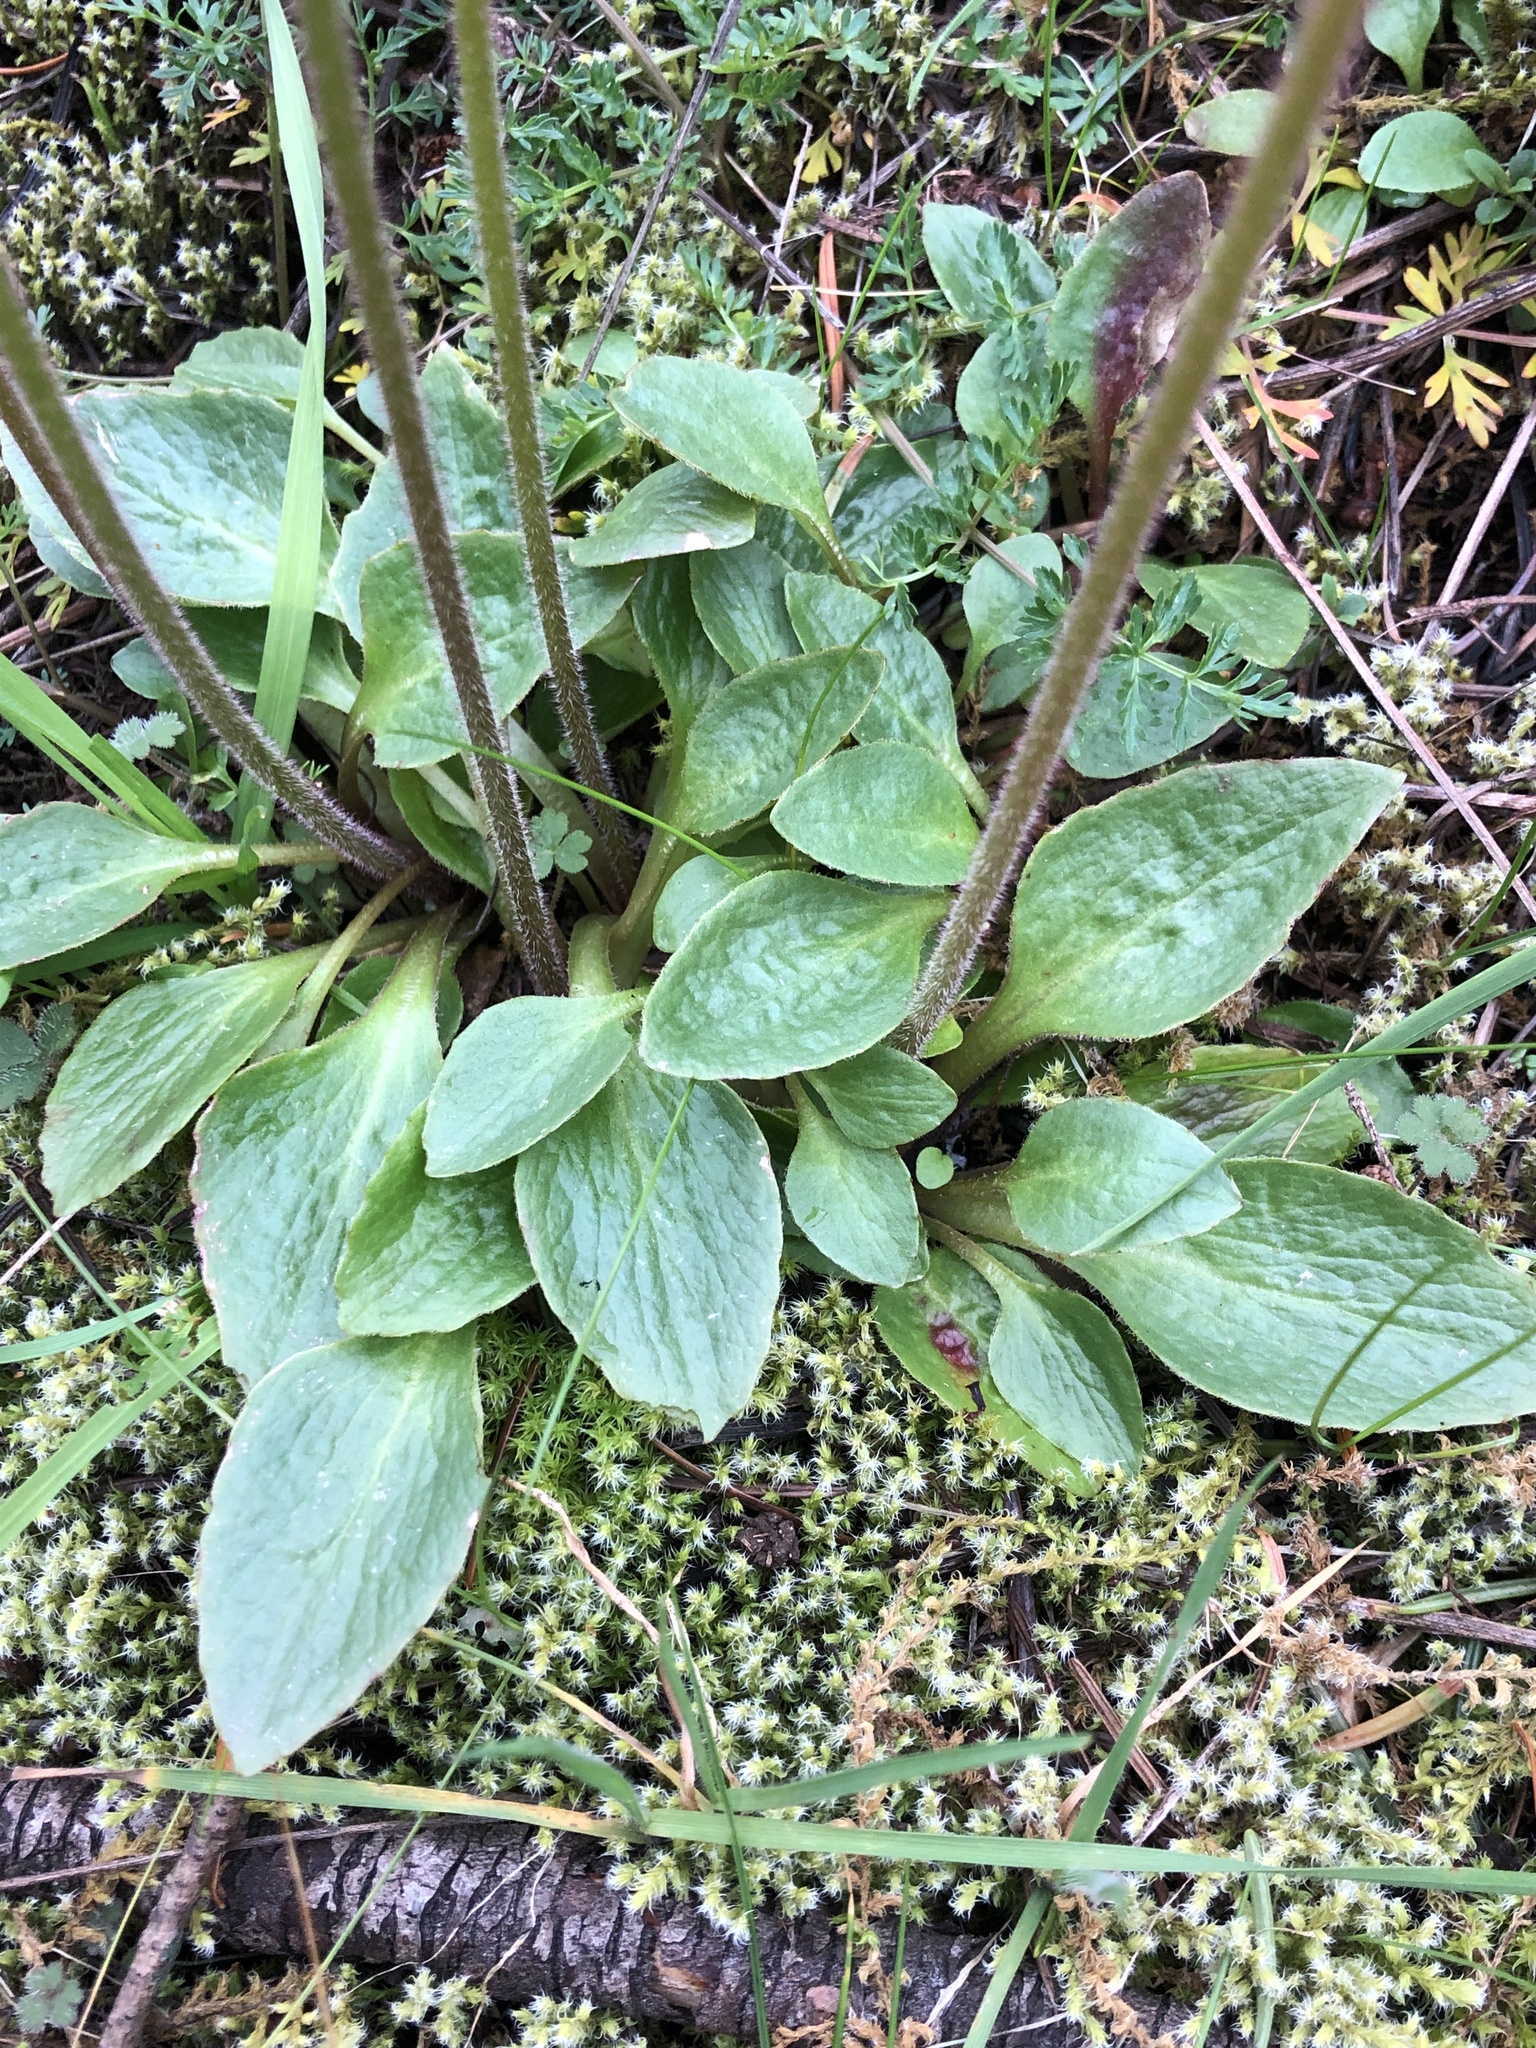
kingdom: Plantae
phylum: Tracheophyta
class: Magnoliopsida
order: Saxifragales
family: Saxifragaceae
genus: Micranthes
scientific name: Micranthes integrifolia
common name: Wholeleaf saxifrage
